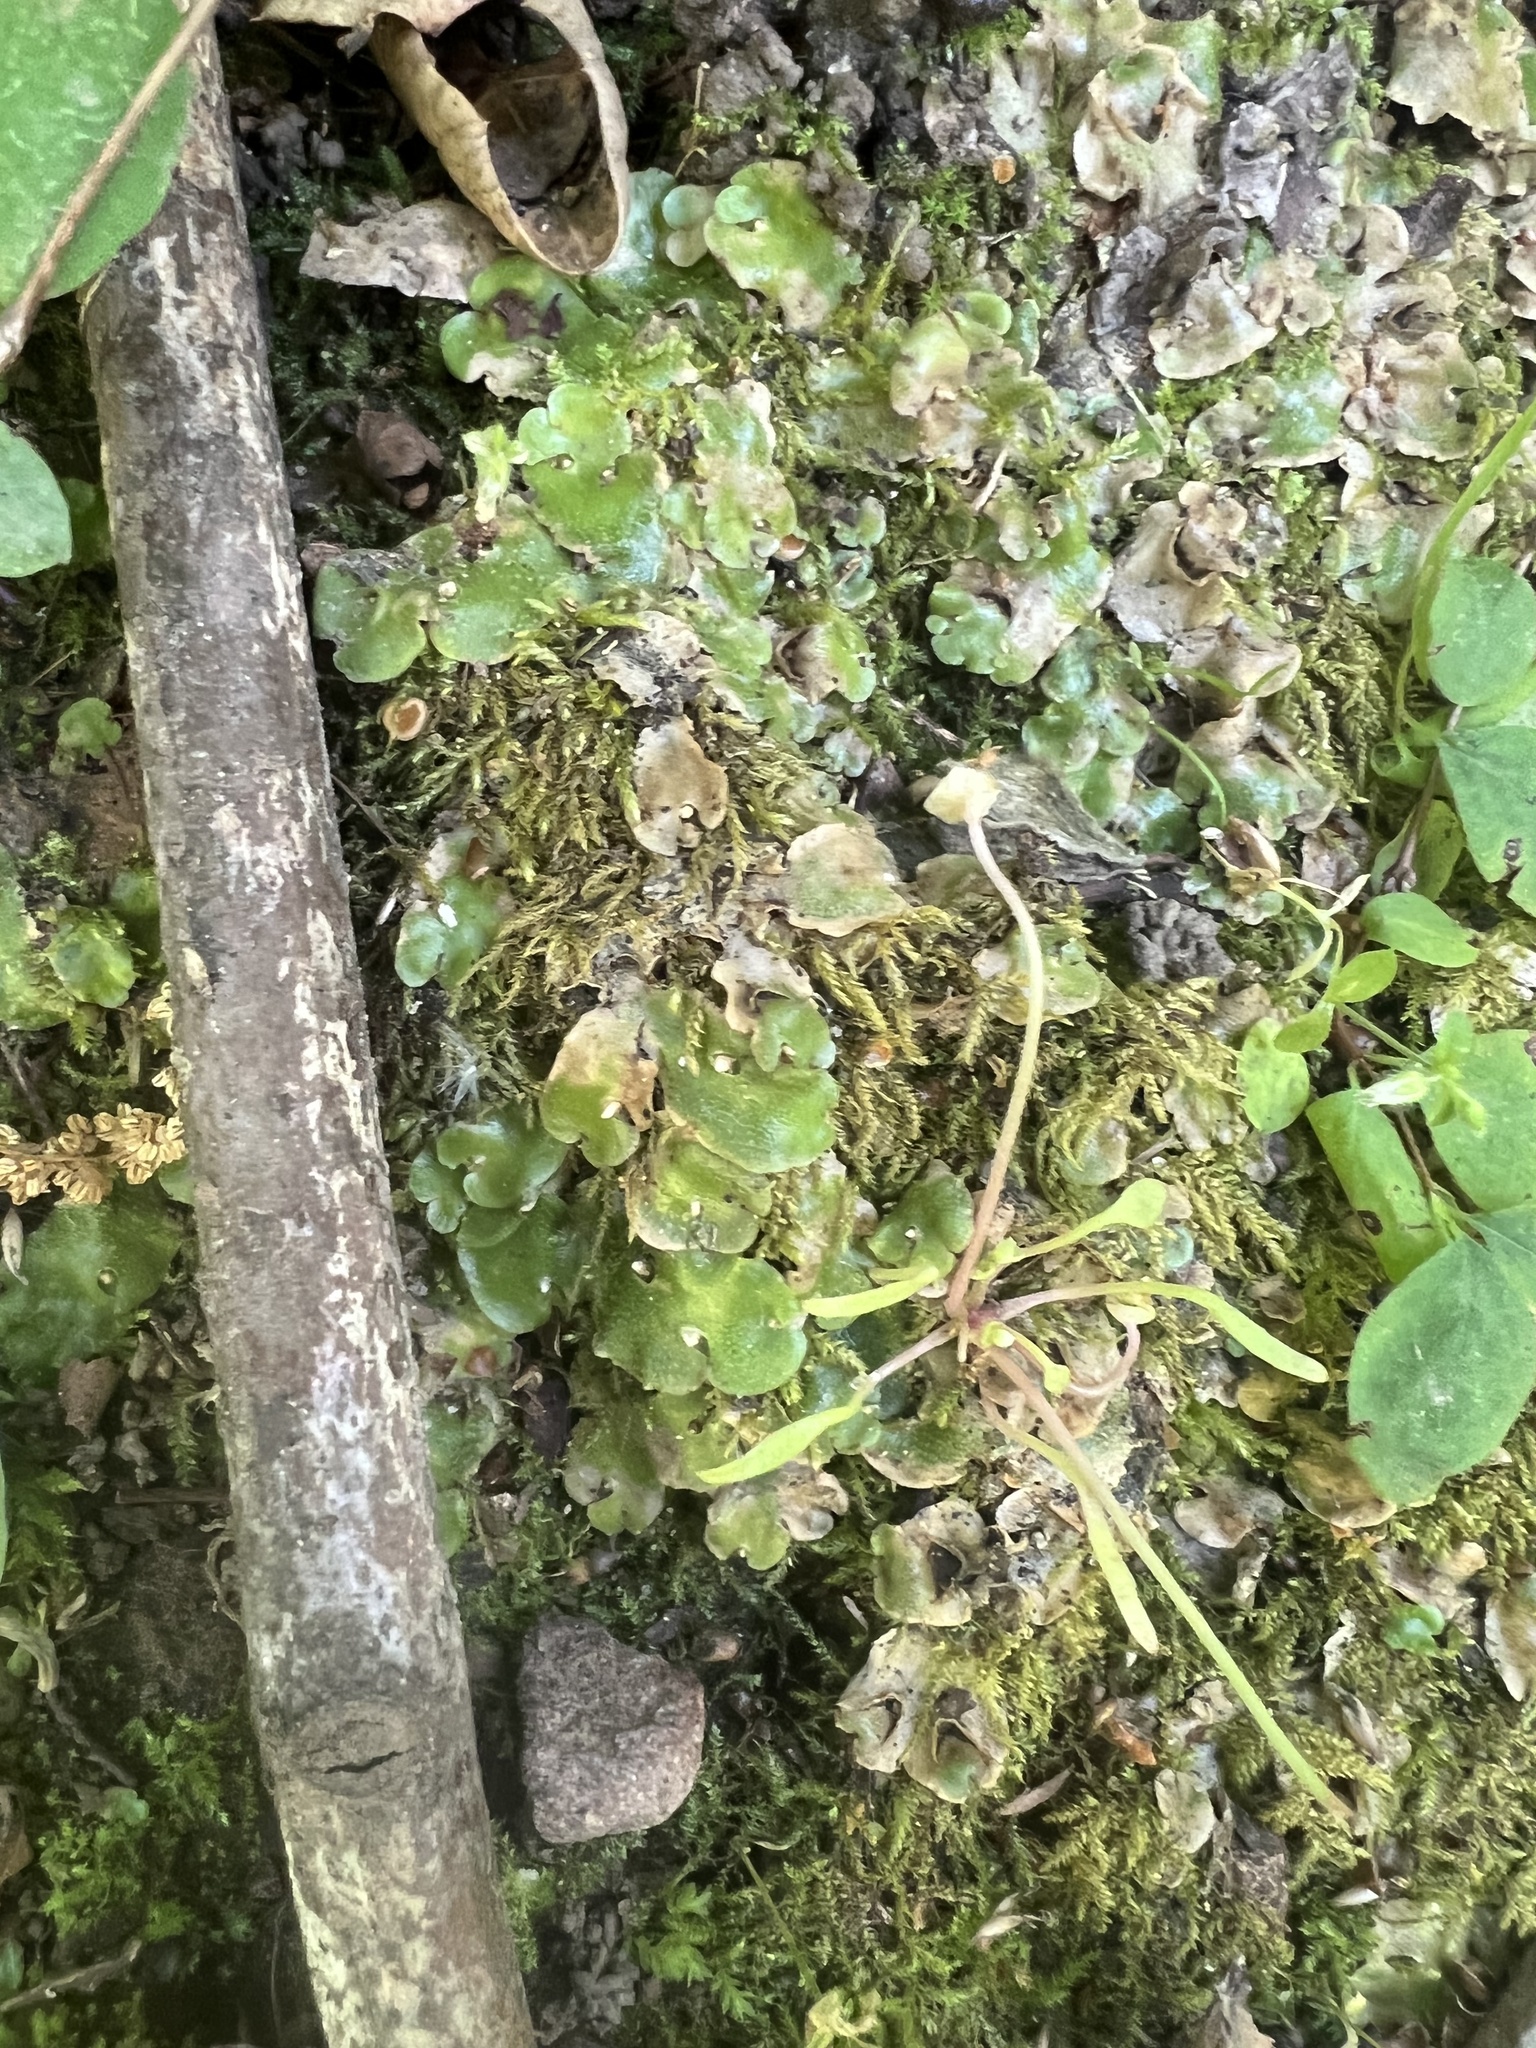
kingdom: Plantae
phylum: Marchantiophyta
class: Marchantiopsida
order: Lunulariales
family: Lunulariaceae
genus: Lunularia
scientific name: Lunularia cruciata
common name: Crescent-cup liverwort
